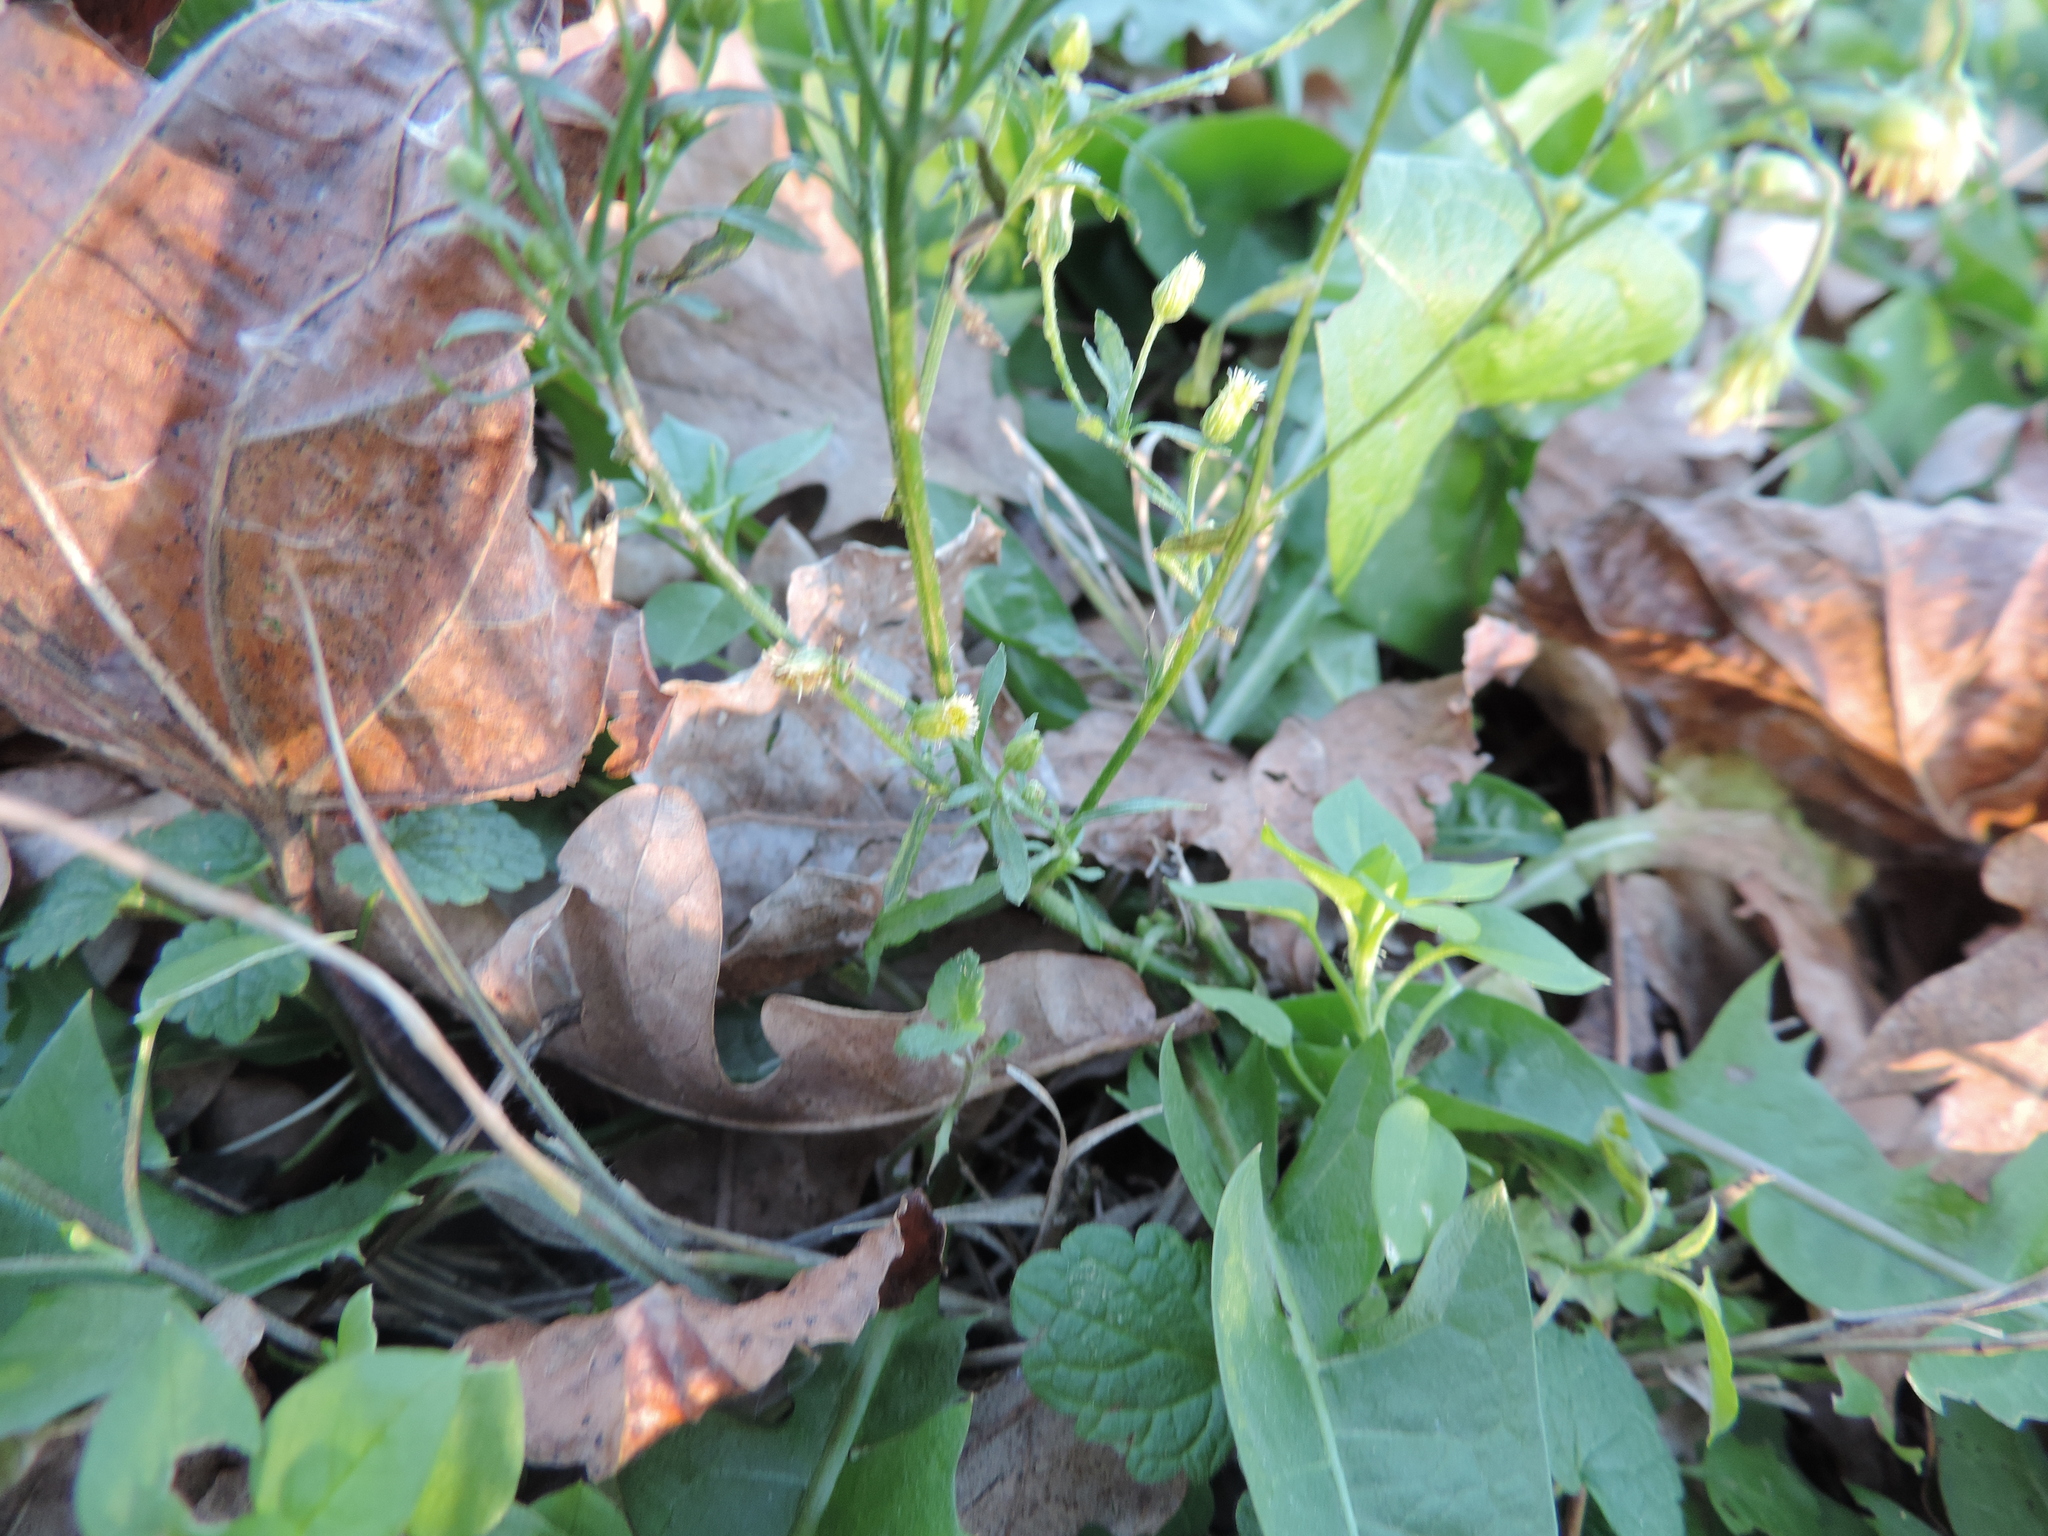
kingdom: Plantae
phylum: Tracheophyta
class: Magnoliopsida
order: Asterales
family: Asteraceae
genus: Erigeron
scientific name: Erigeron canadensis
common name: Canadian fleabane
